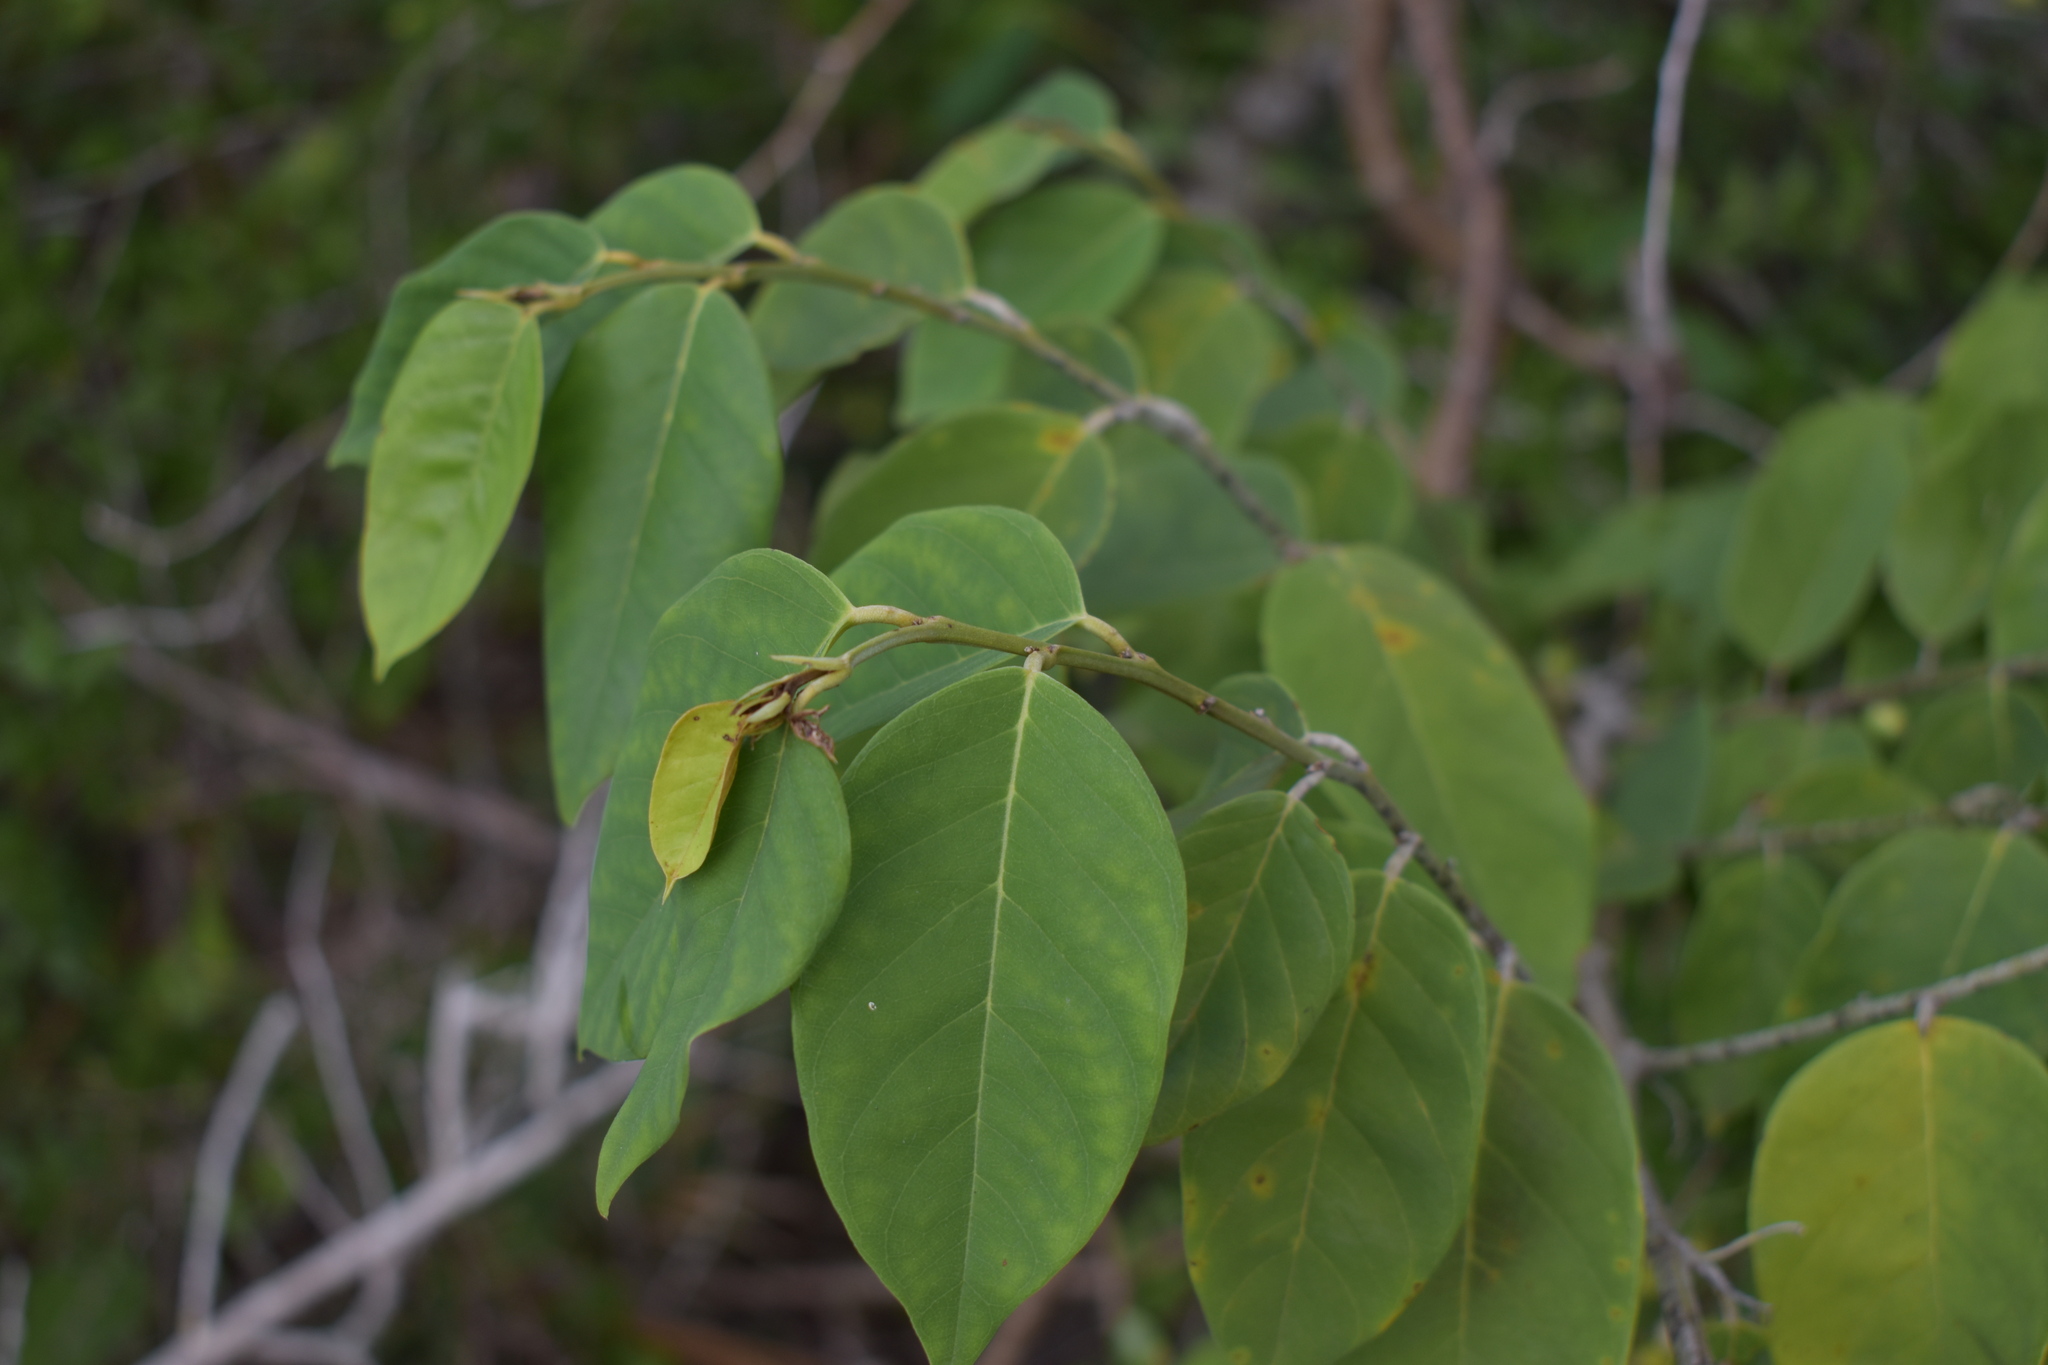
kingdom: Plantae
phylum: Tracheophyta
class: Magnoliopsida
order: Fabales
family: Fabaceae
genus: Dalbergia
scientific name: Dalbergia ecastaphyllum
